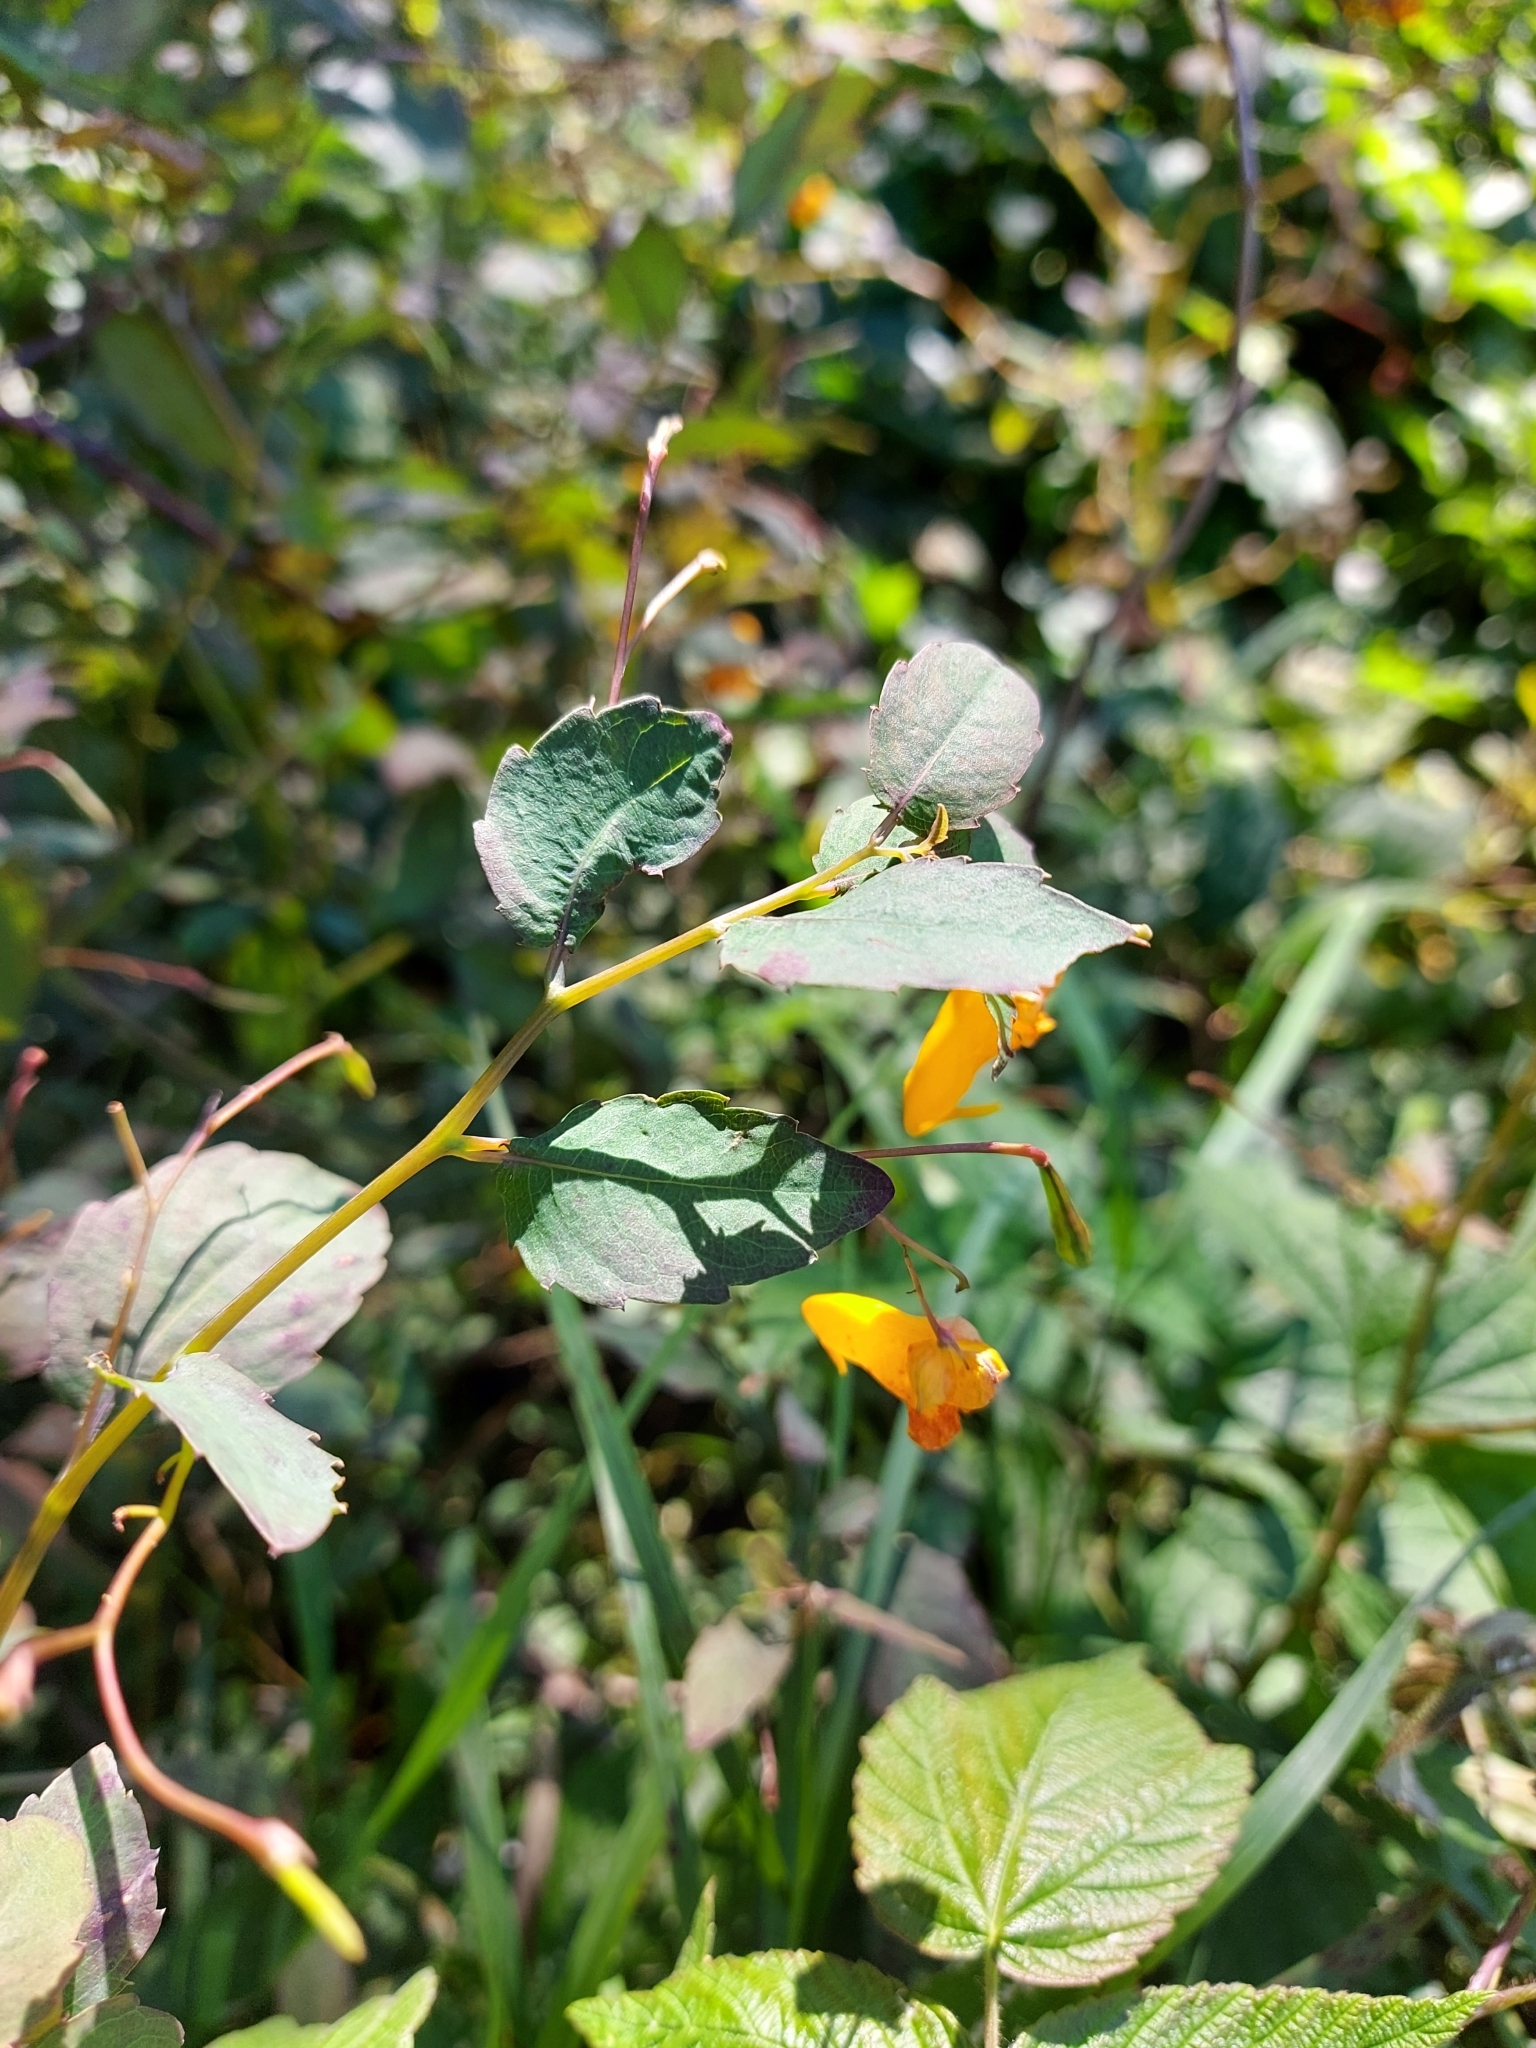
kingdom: Plantae
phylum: Tracheophyta
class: Magnoliopsida
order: Ericales
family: Balsaminaceae
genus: Impatiens
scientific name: Impatiens capensis
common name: Orange balsam
